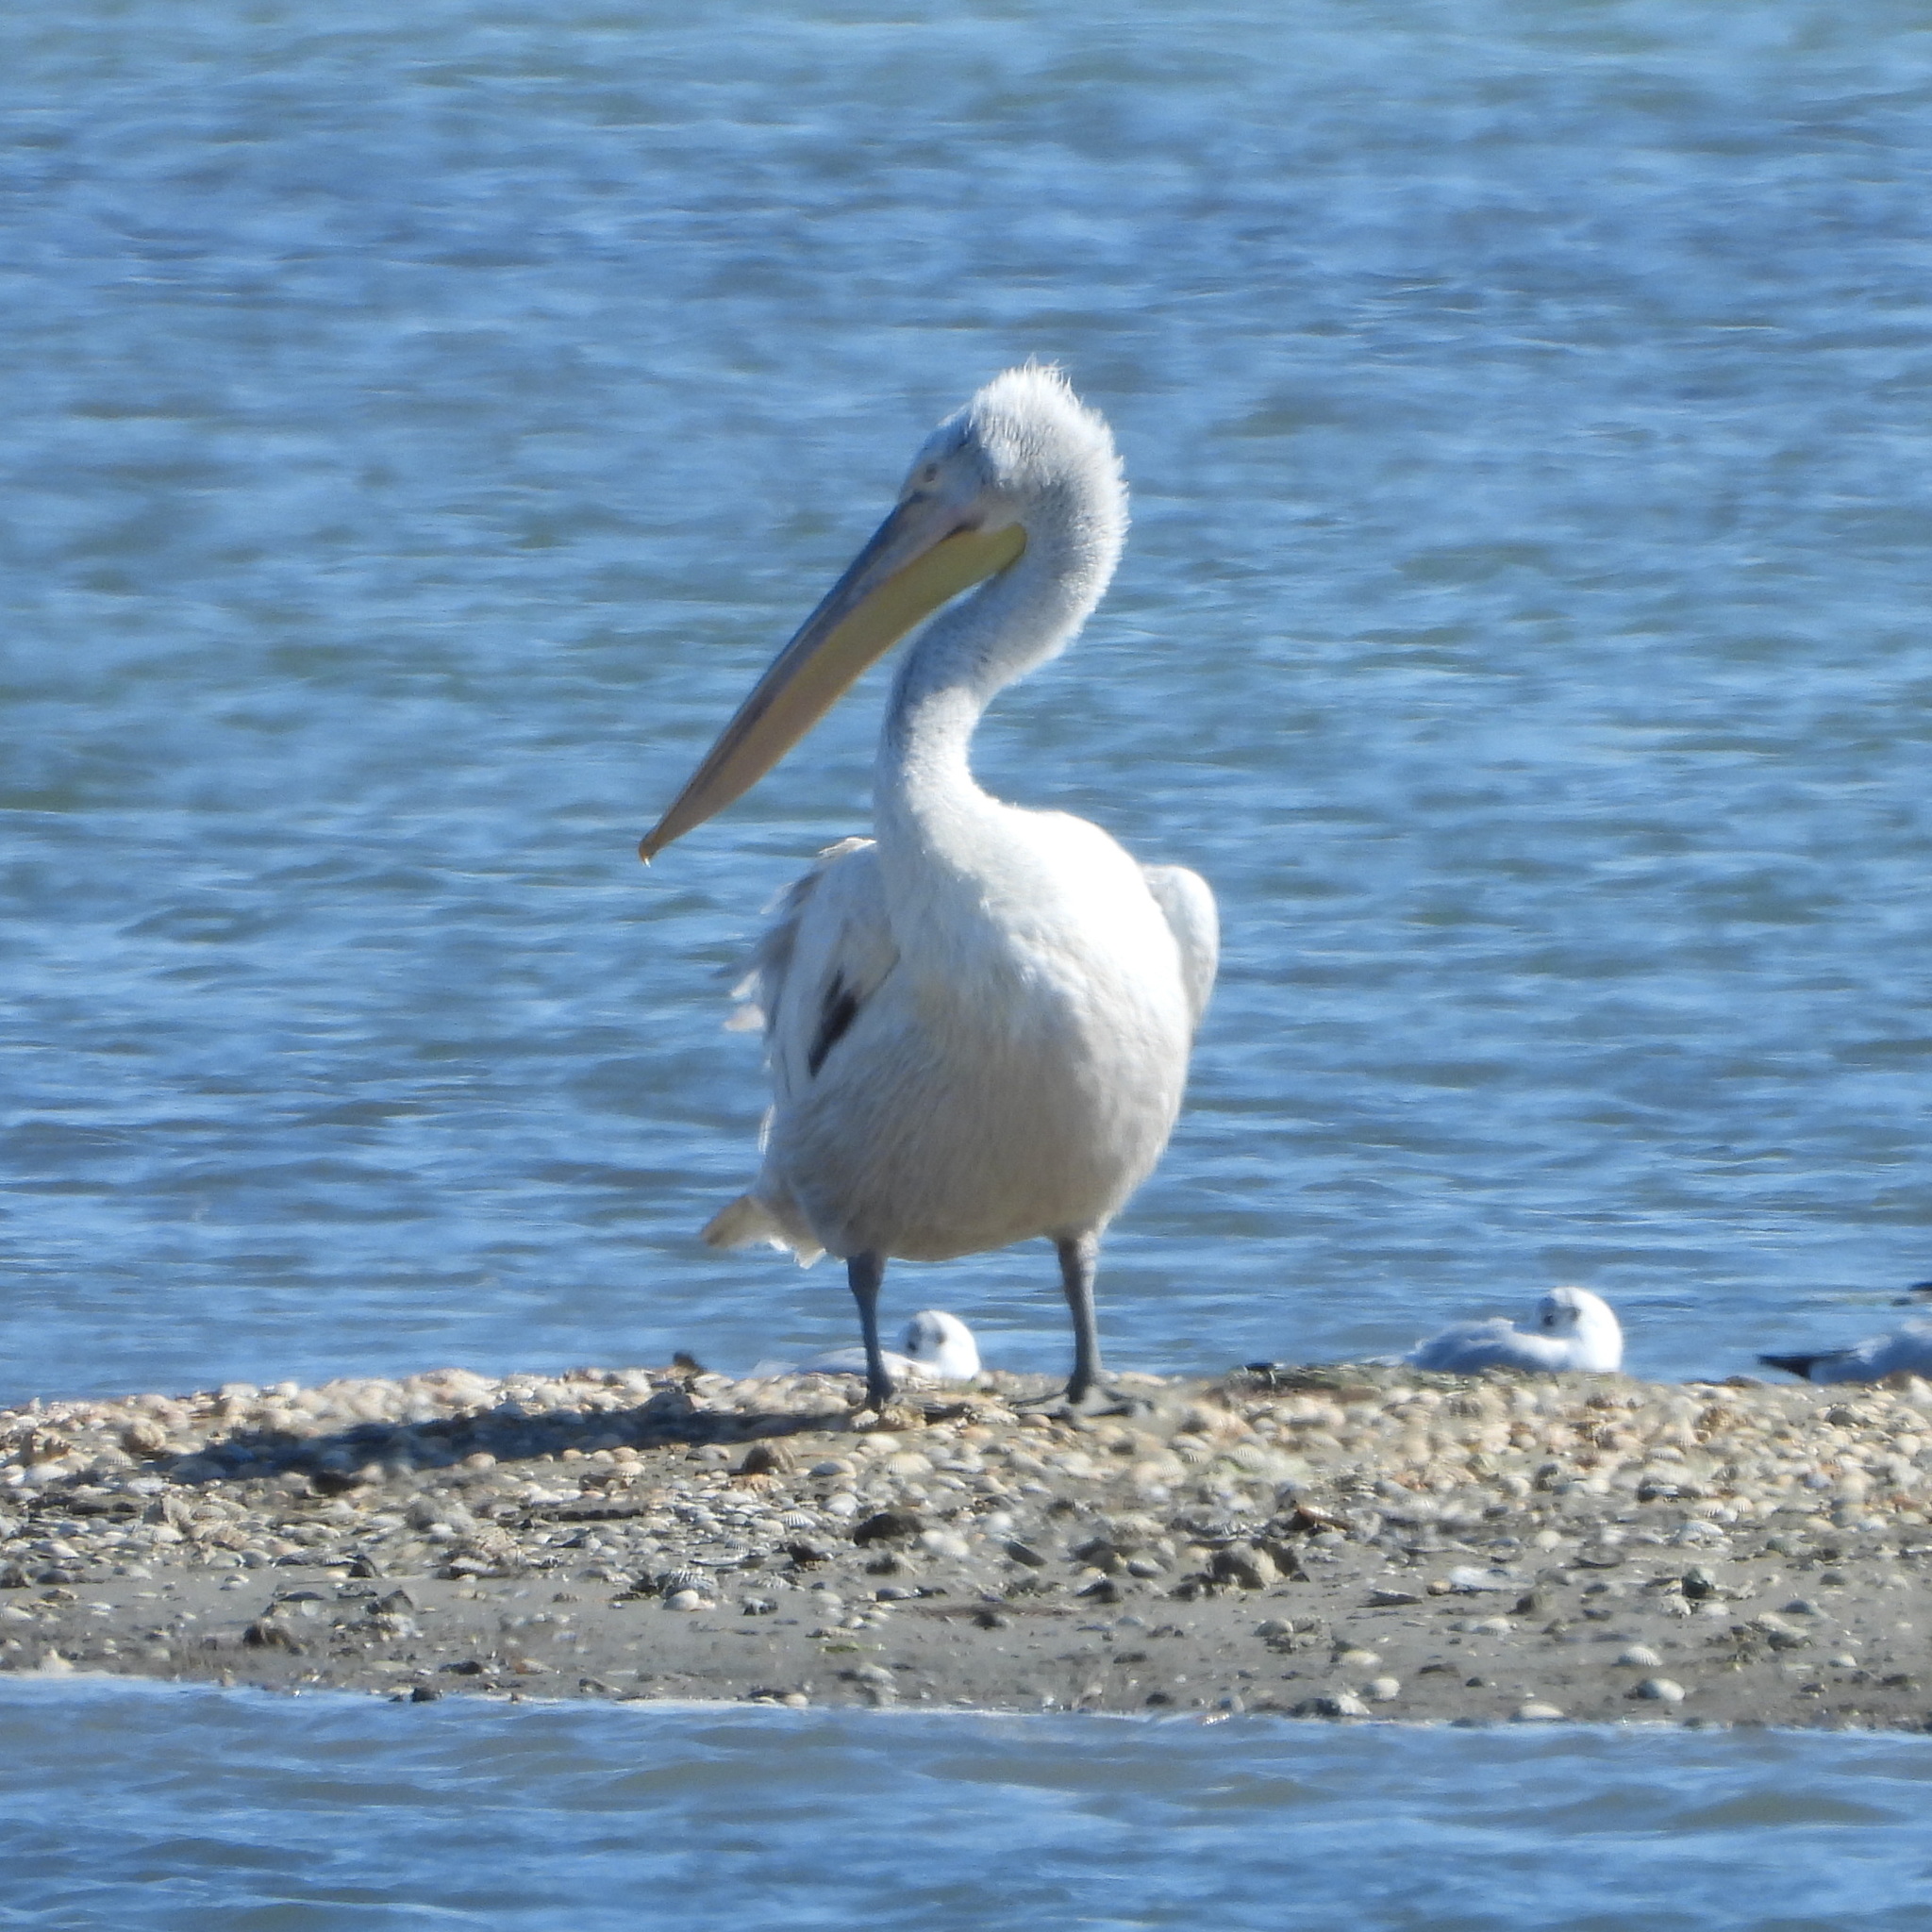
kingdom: Animalia
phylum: Chordata
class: Aves
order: Pelecaniformes
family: Pelecanidae
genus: Pelecanus
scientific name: Pelecanus crispus
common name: Dalmatian pelican
